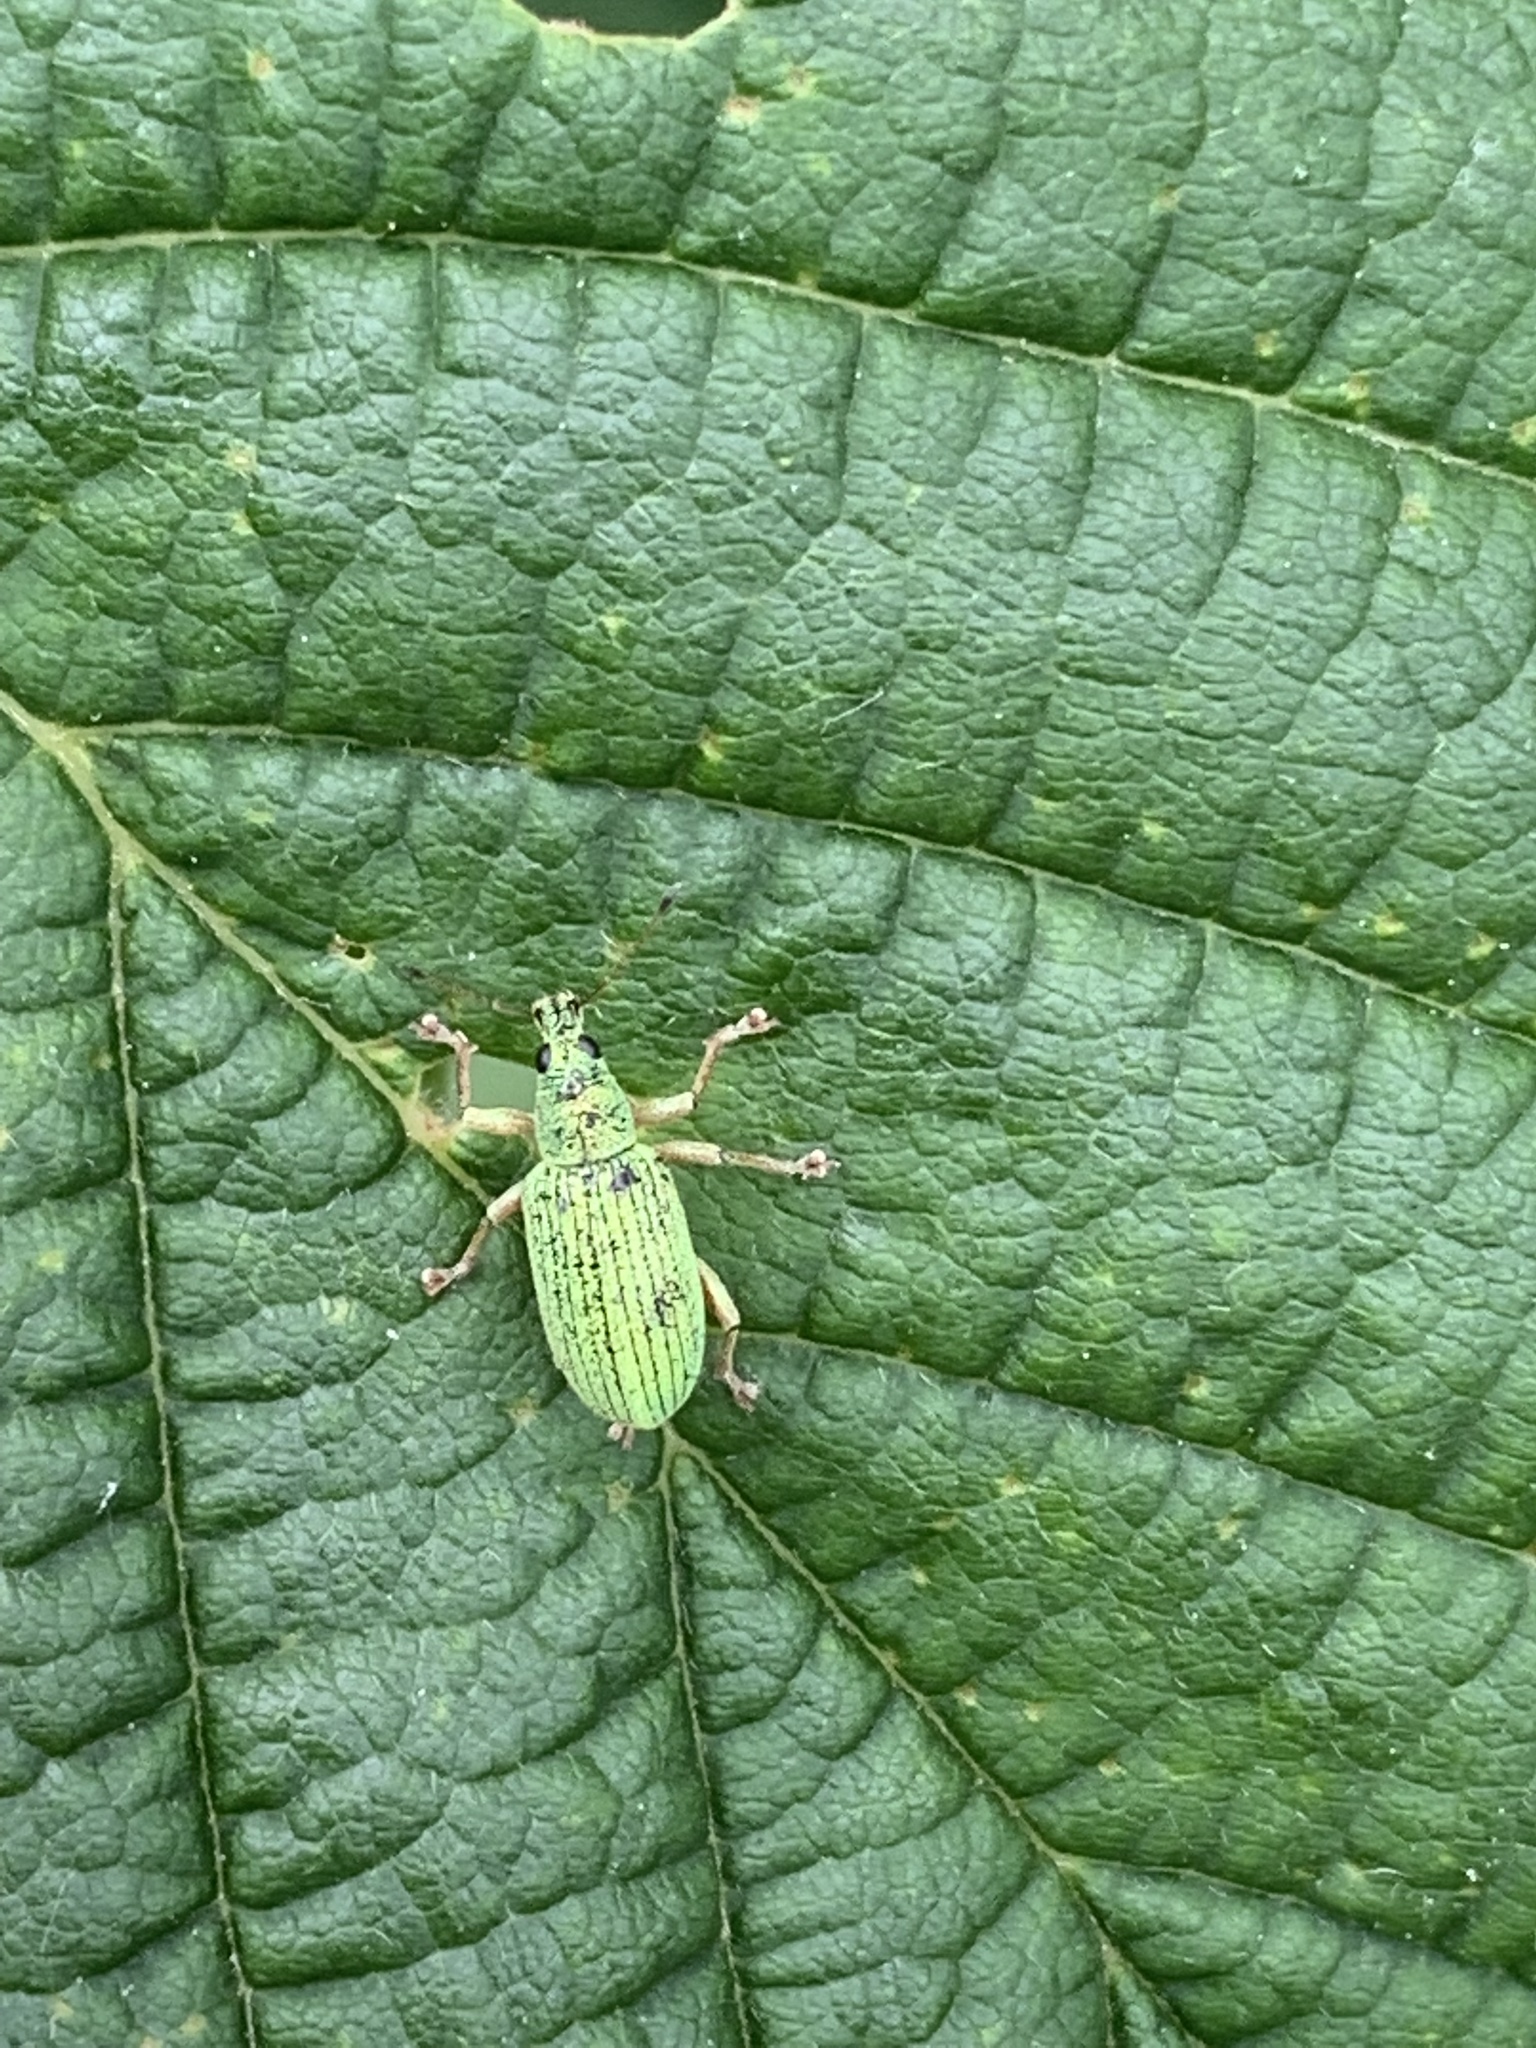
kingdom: Animalia
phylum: Arthropoda
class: Insecta
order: Coleoptera
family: Curculionidae
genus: Polydrusus
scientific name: Polydrusus formosus
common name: Weevil
